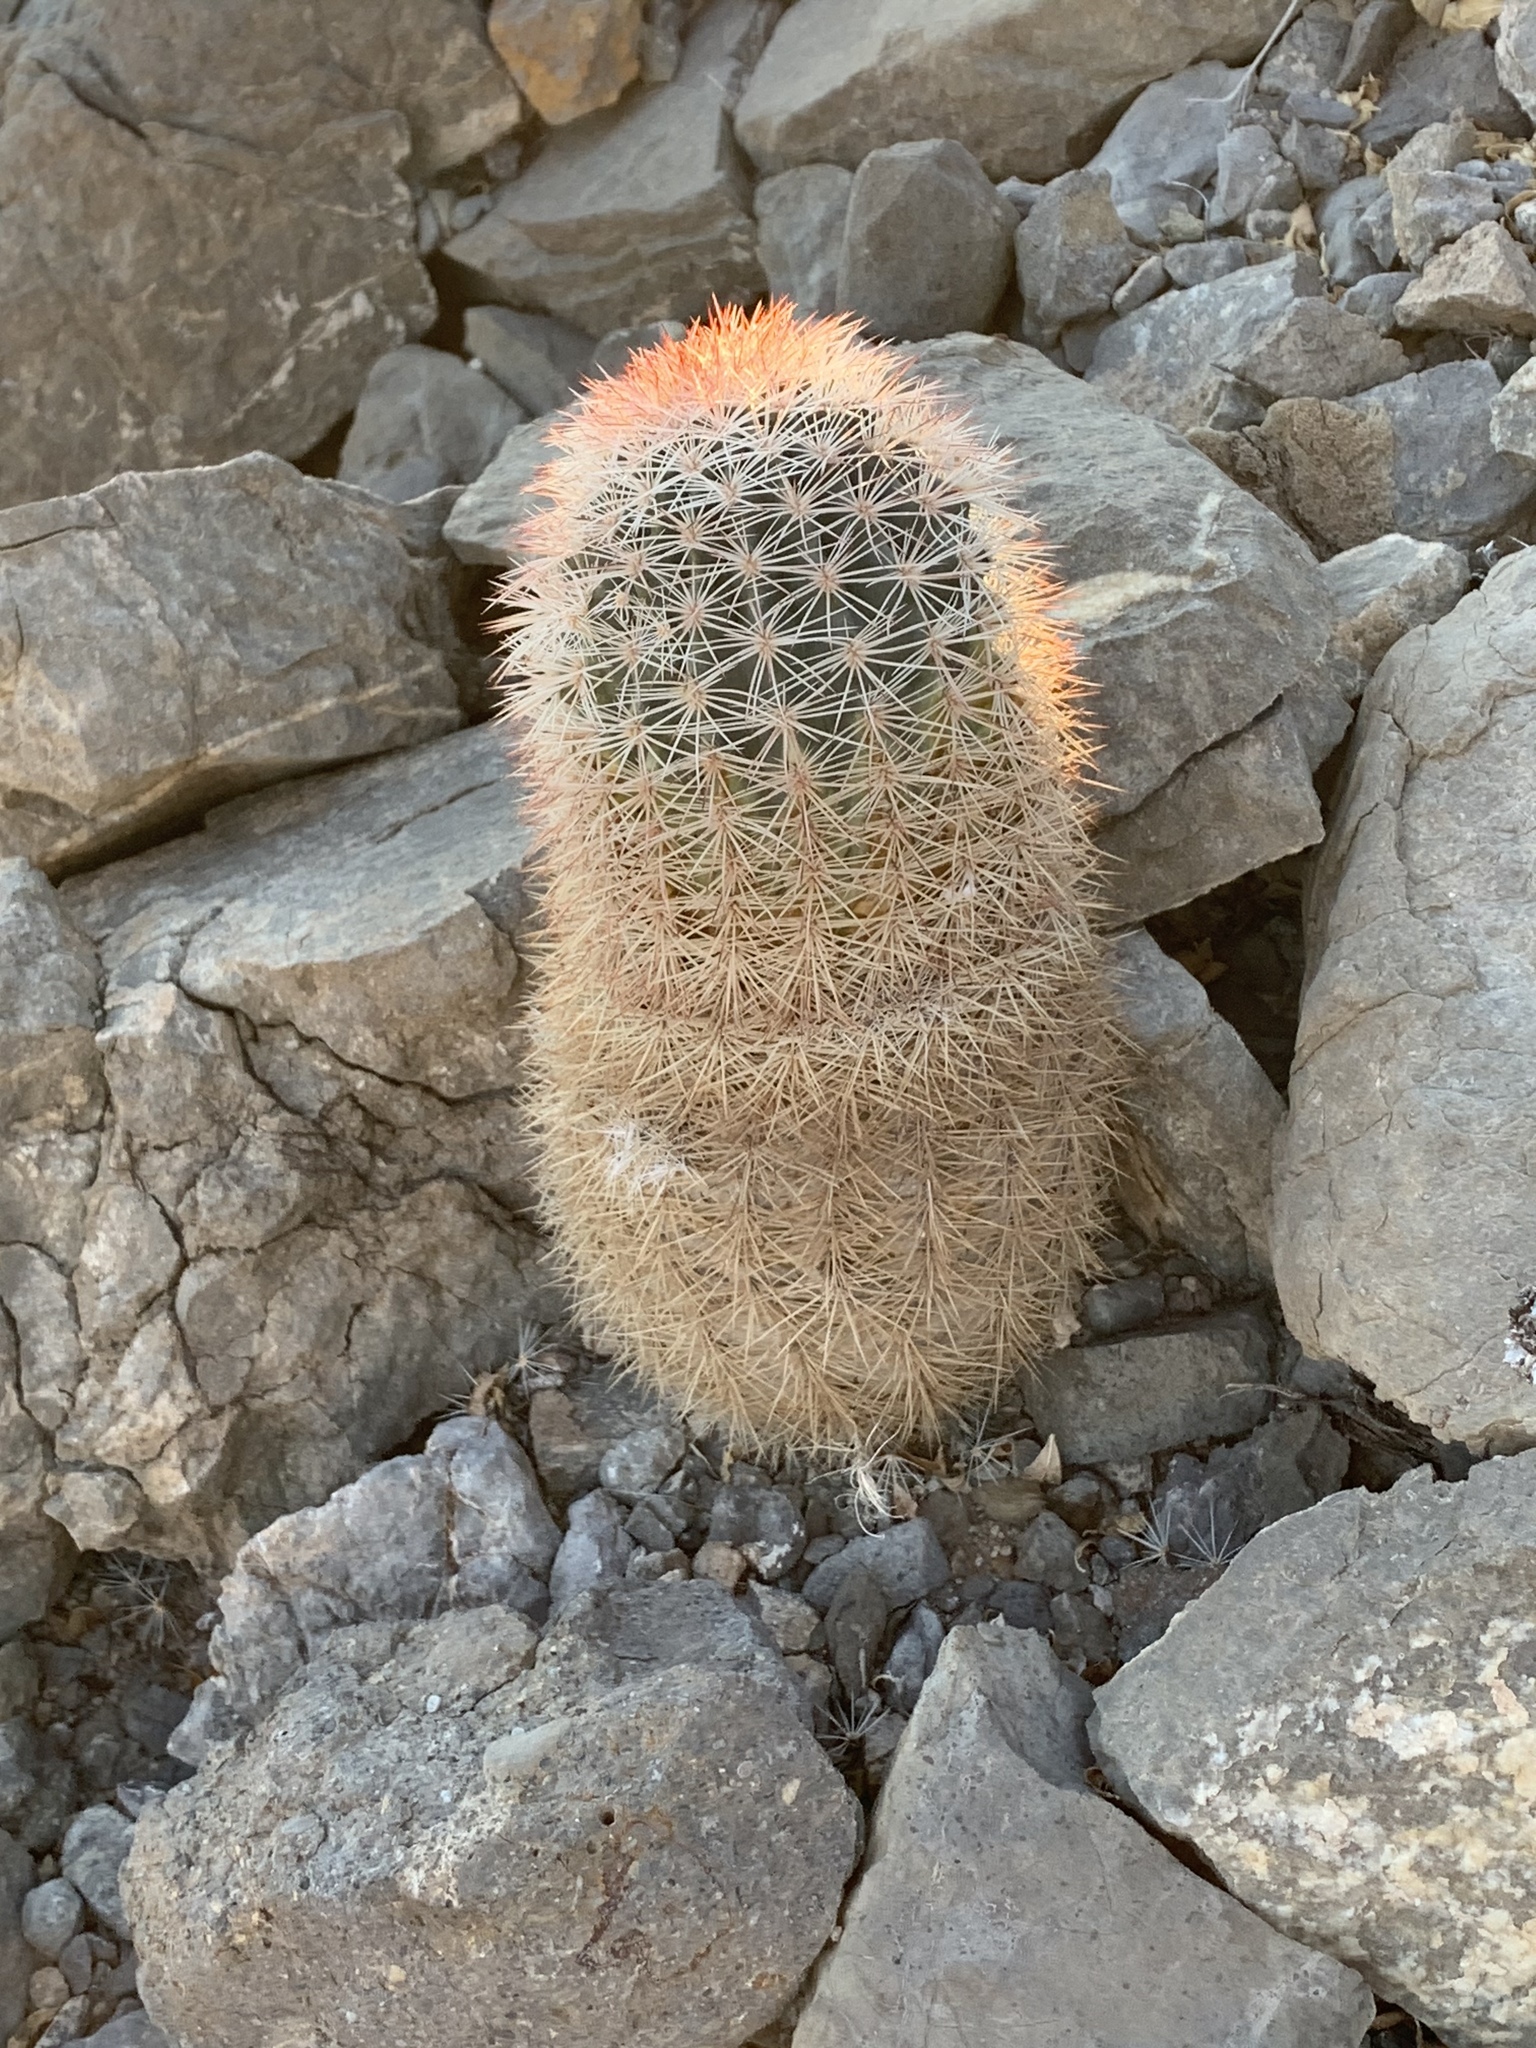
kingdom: Plantae
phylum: Tracheophyta
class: Magnoliopsida
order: Caryophyllales
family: Cactaceae
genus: Echinocereus
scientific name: Echinocereus dasyacanthus
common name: Spiny hedgehog cactus
